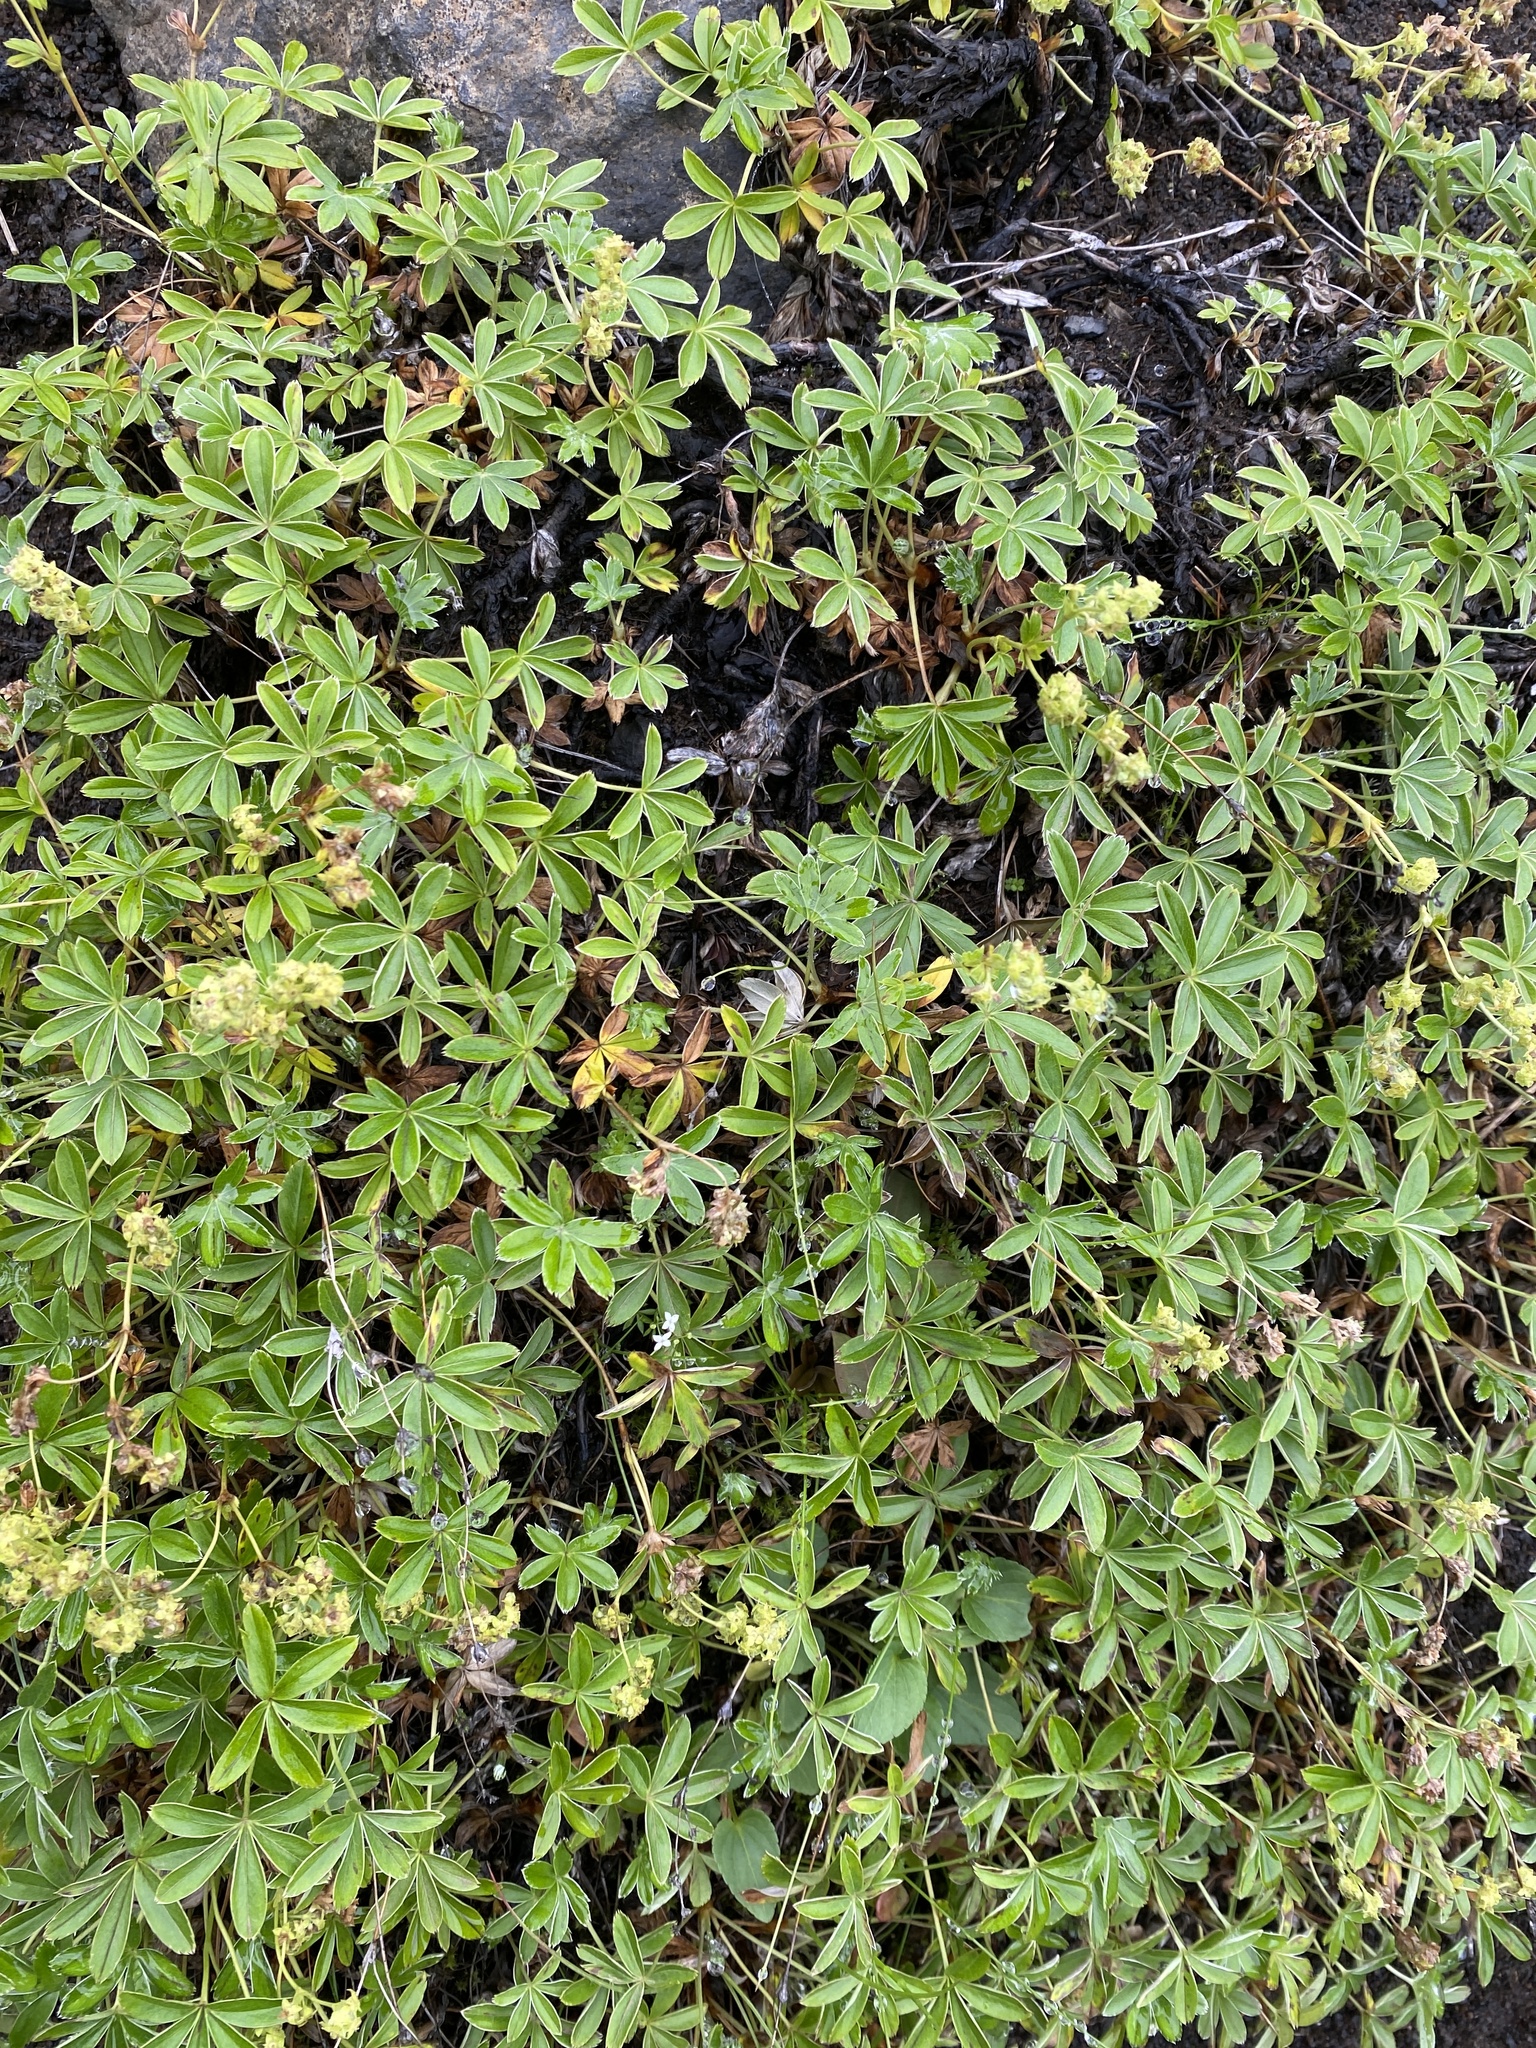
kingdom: Plantae
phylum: Tracheophyta
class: Magnoliopsida
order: Rosales
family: Rosaceae
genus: Alchemilla
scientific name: Alchemilla alpina
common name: Alpine lady's-mantle
